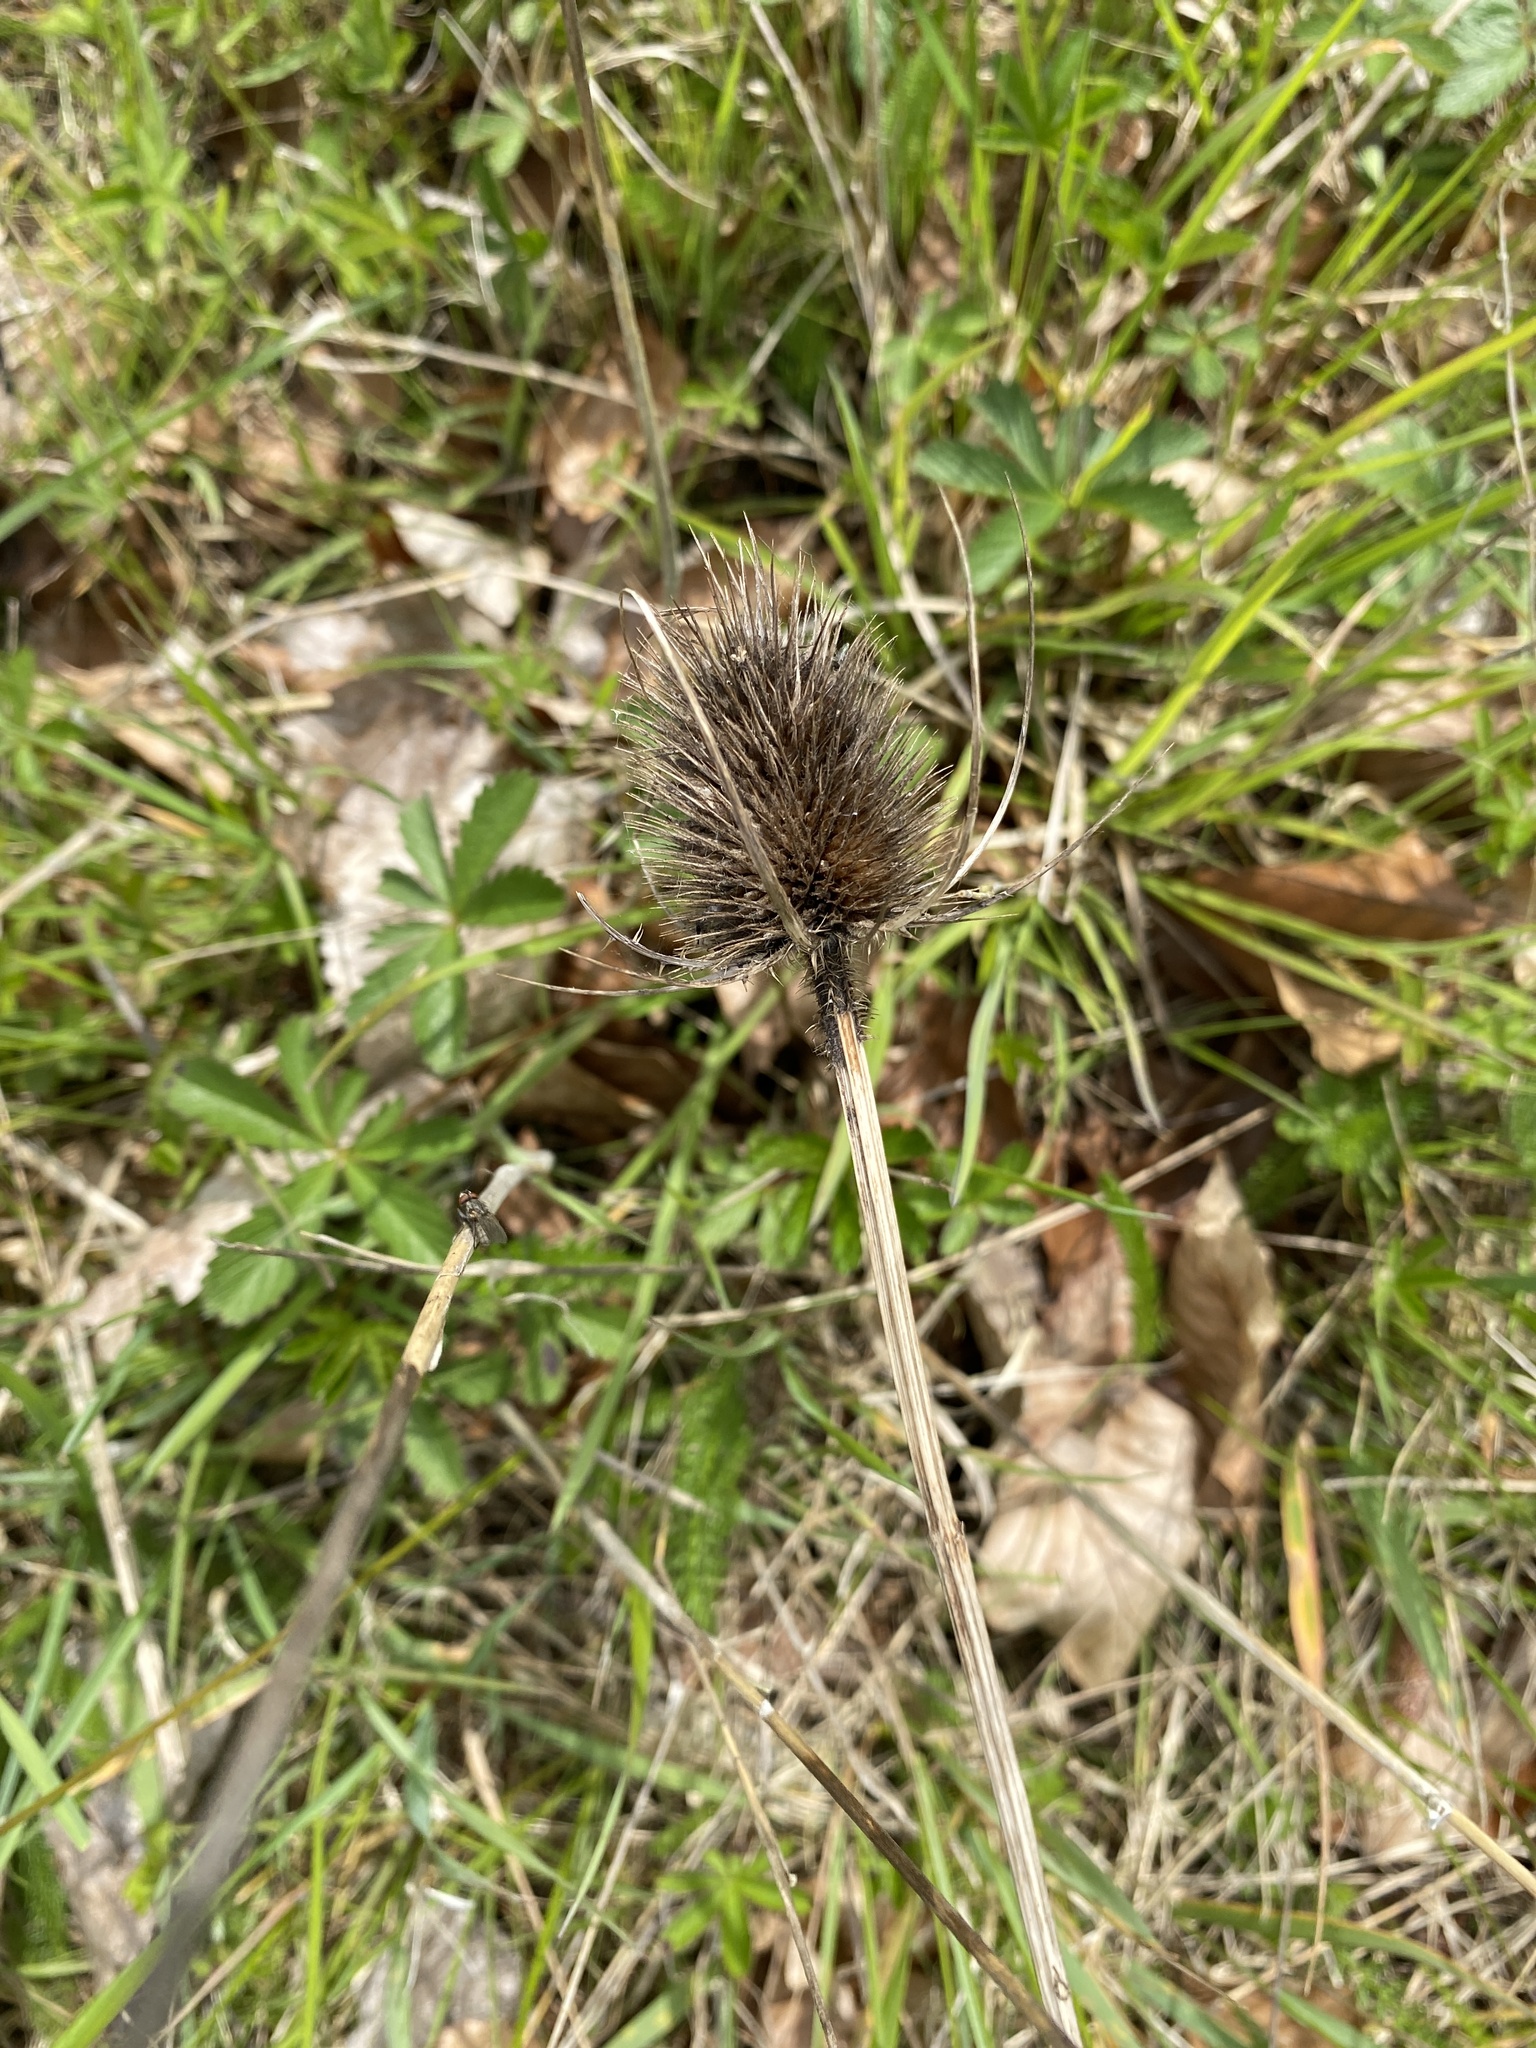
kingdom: Plantae
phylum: Tracheophyta
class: Magnoliopsida
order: Dipsacales
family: Caprifoliaceae
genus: Dipsacus
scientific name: Dipsacus fullonum
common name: Teasel
